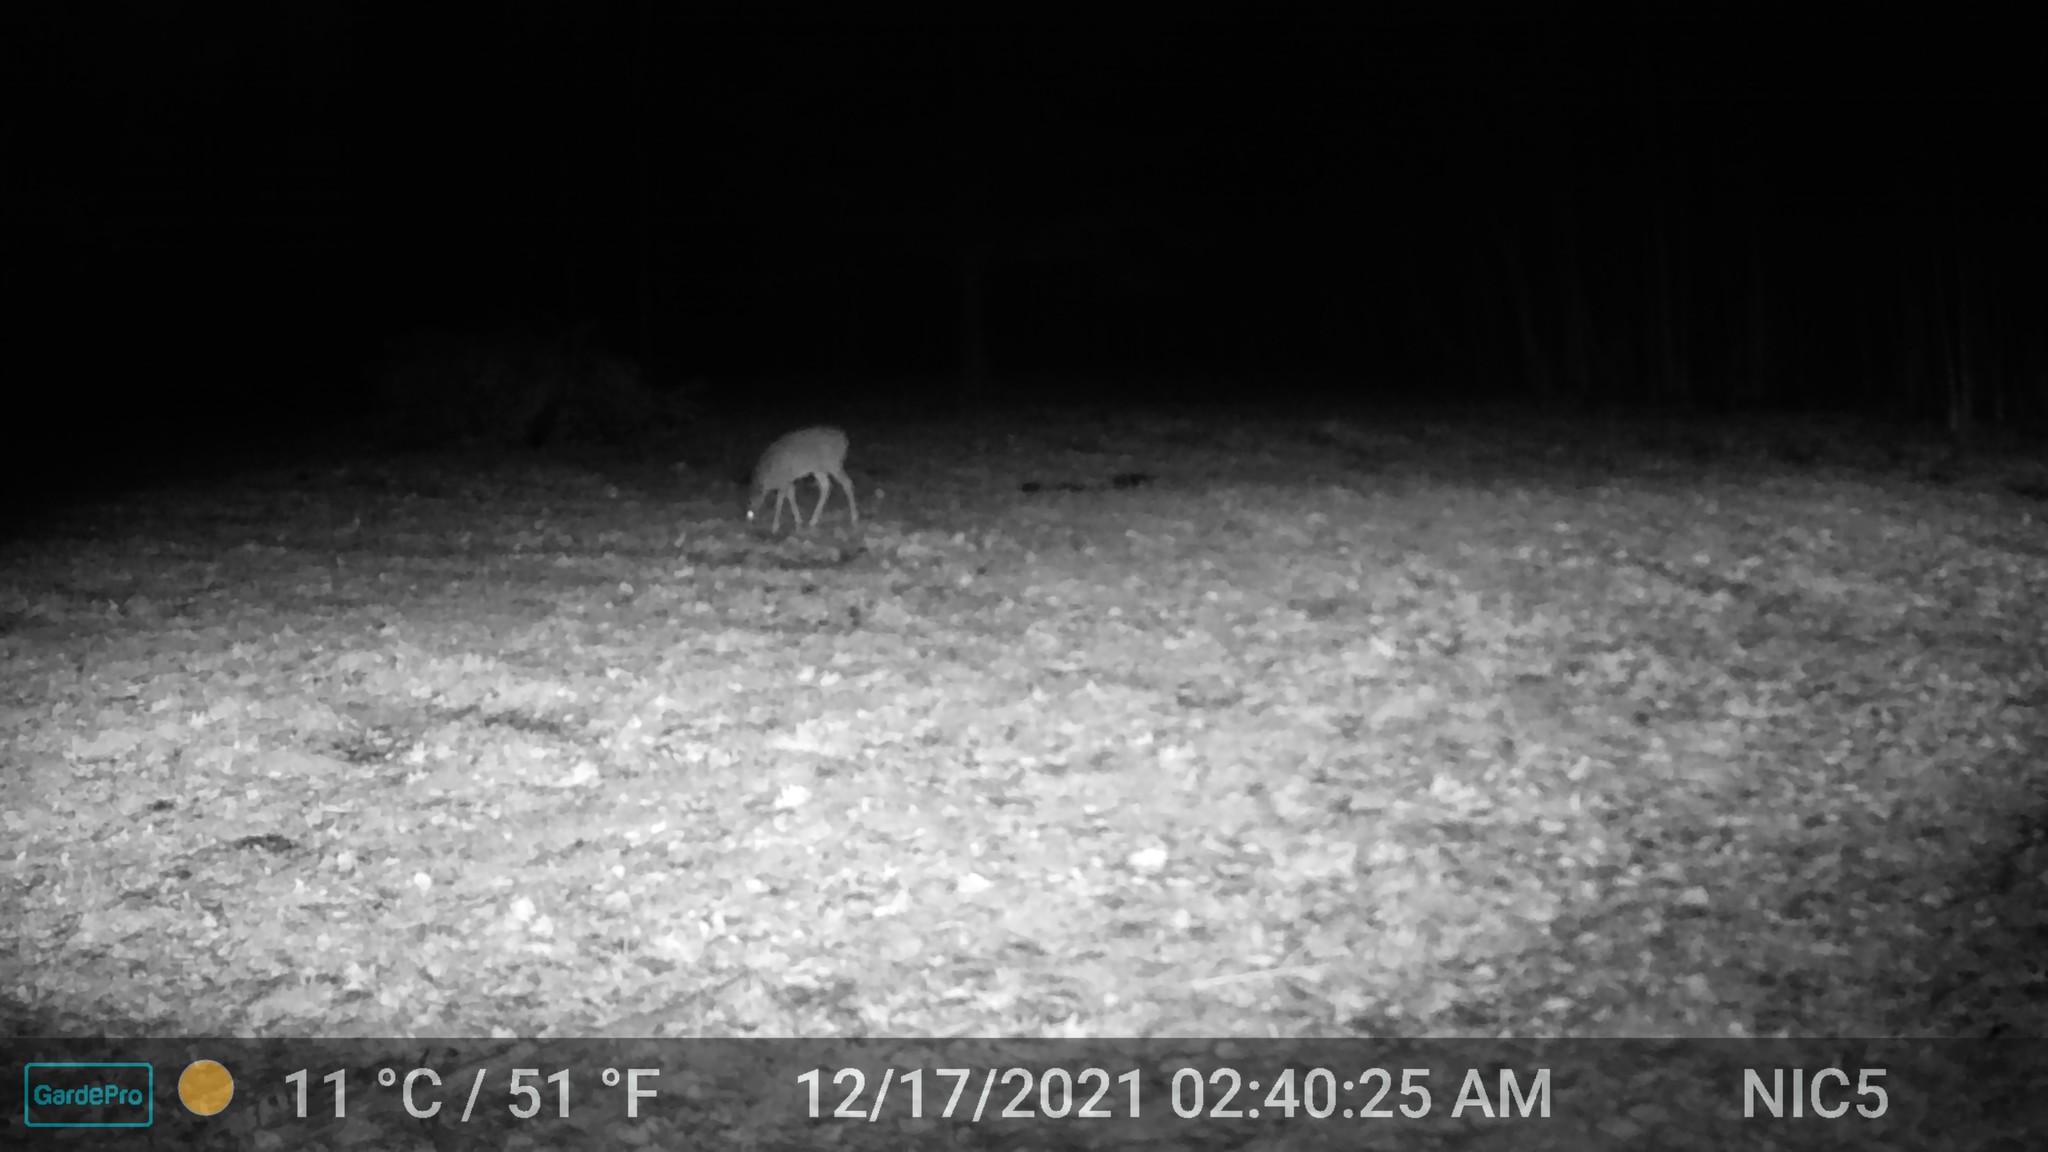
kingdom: Animalia
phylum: Chordata
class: Mammalia
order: Artiodactyla
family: Cervidae
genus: Odocoileus
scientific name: Odocoileus virginianus
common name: White-tailed deer
